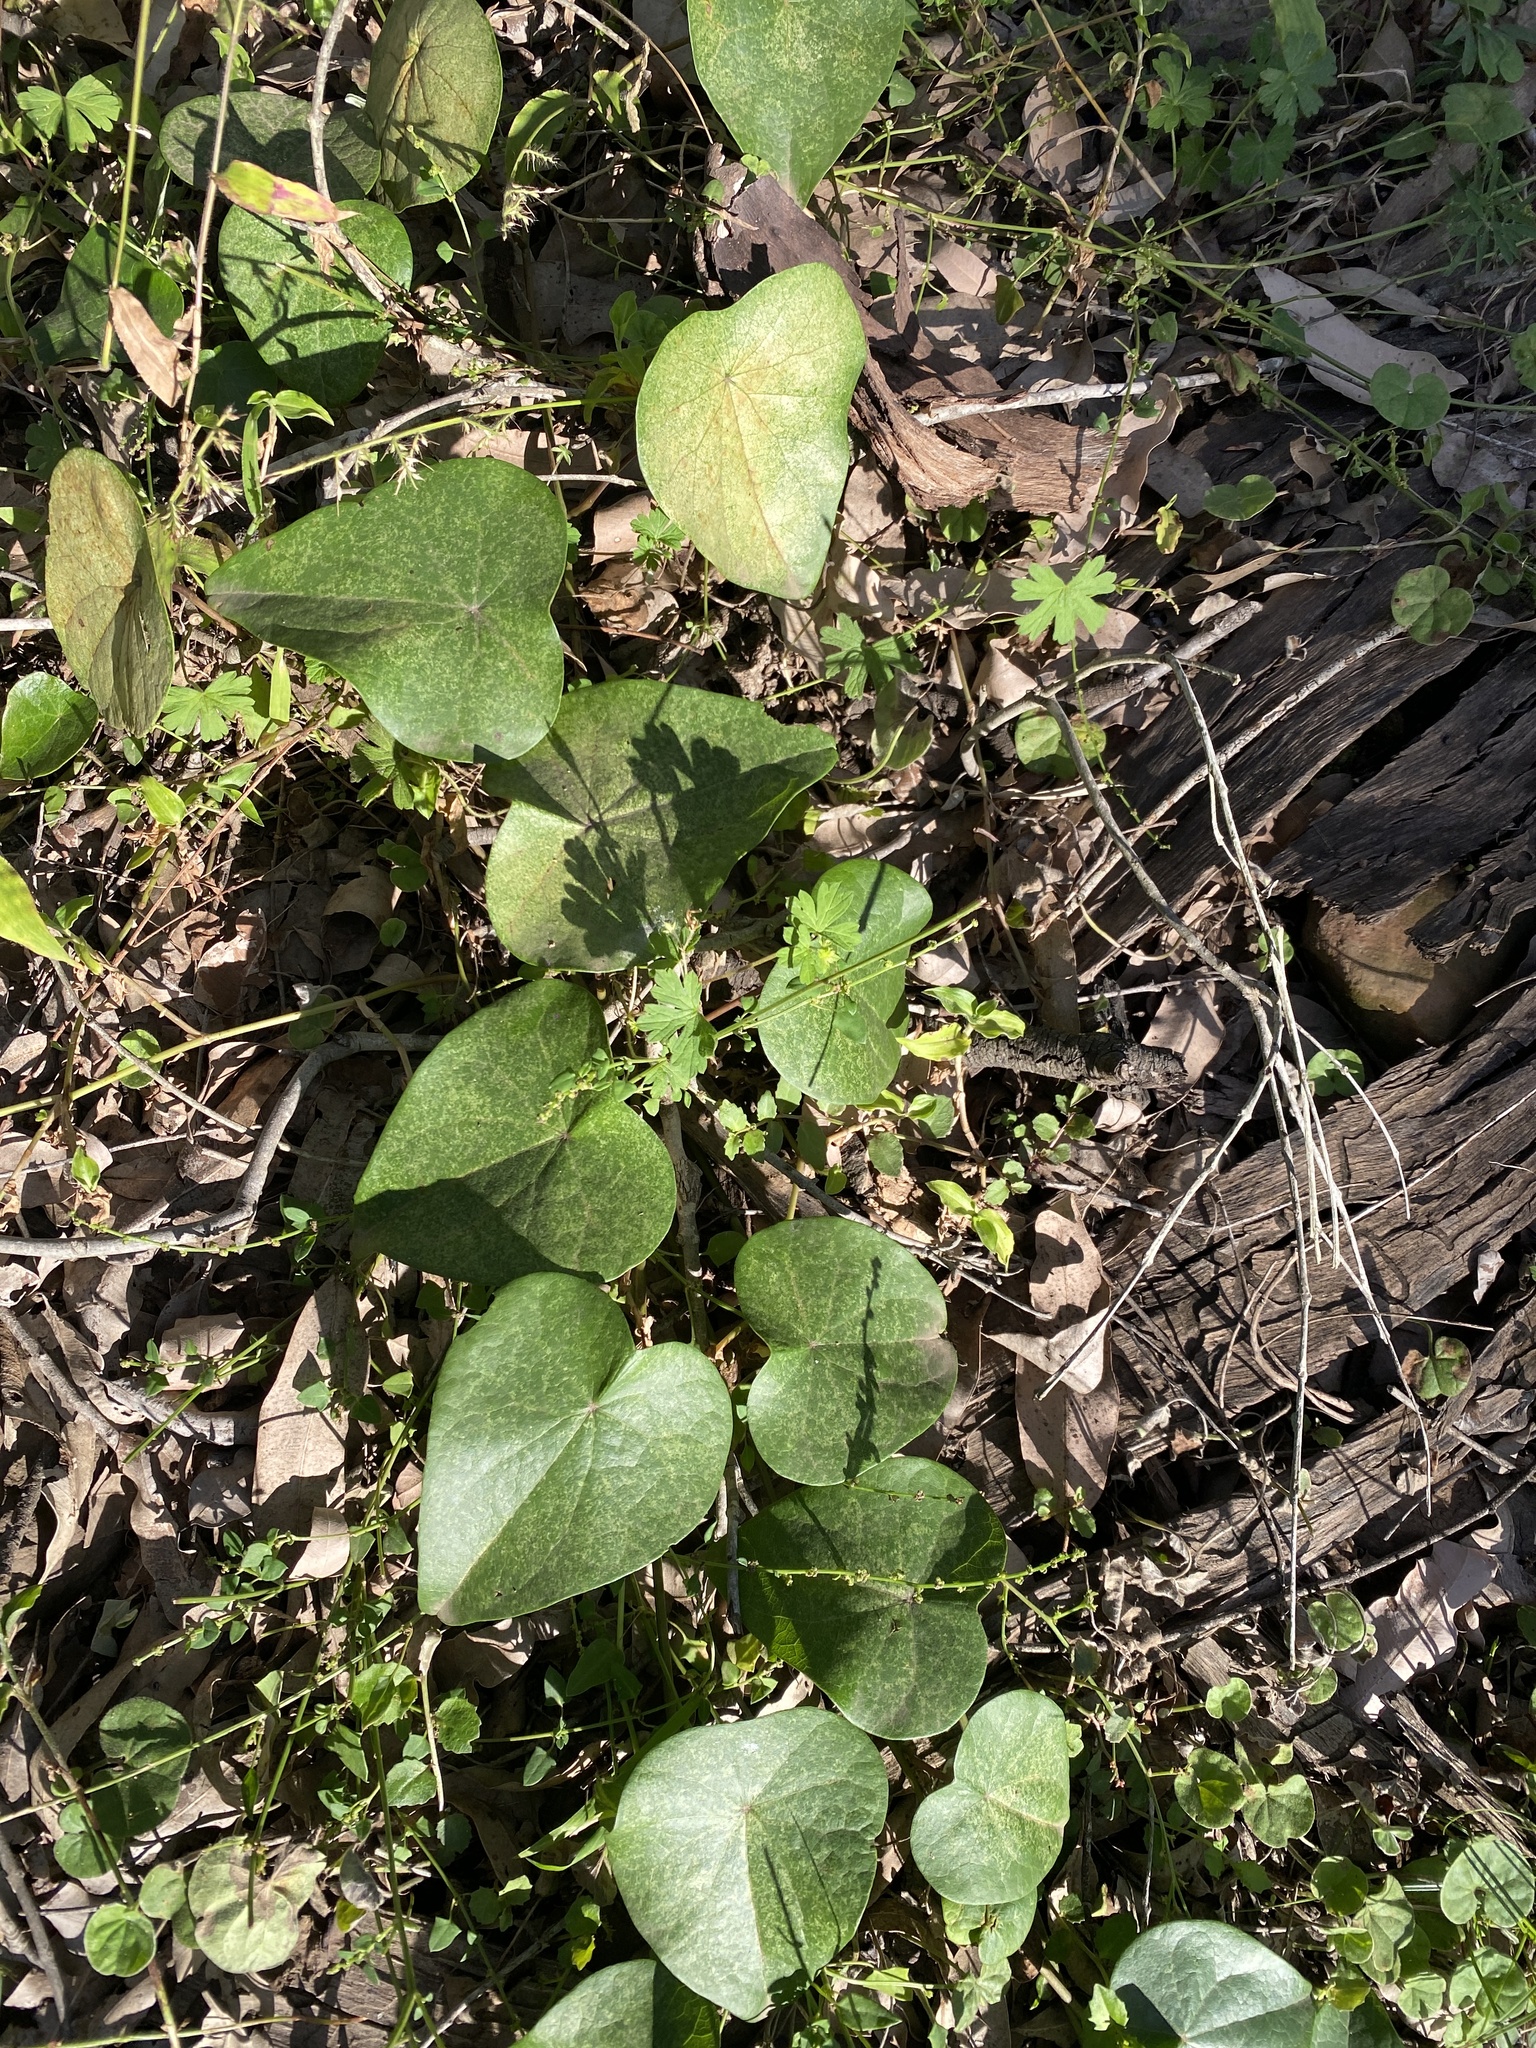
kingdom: Plantae
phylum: Tracheophyta
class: Magnoliopsida
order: Ranunculales
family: Menispermaceae
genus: Stephania
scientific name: Stephania japonica
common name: Snake vine
